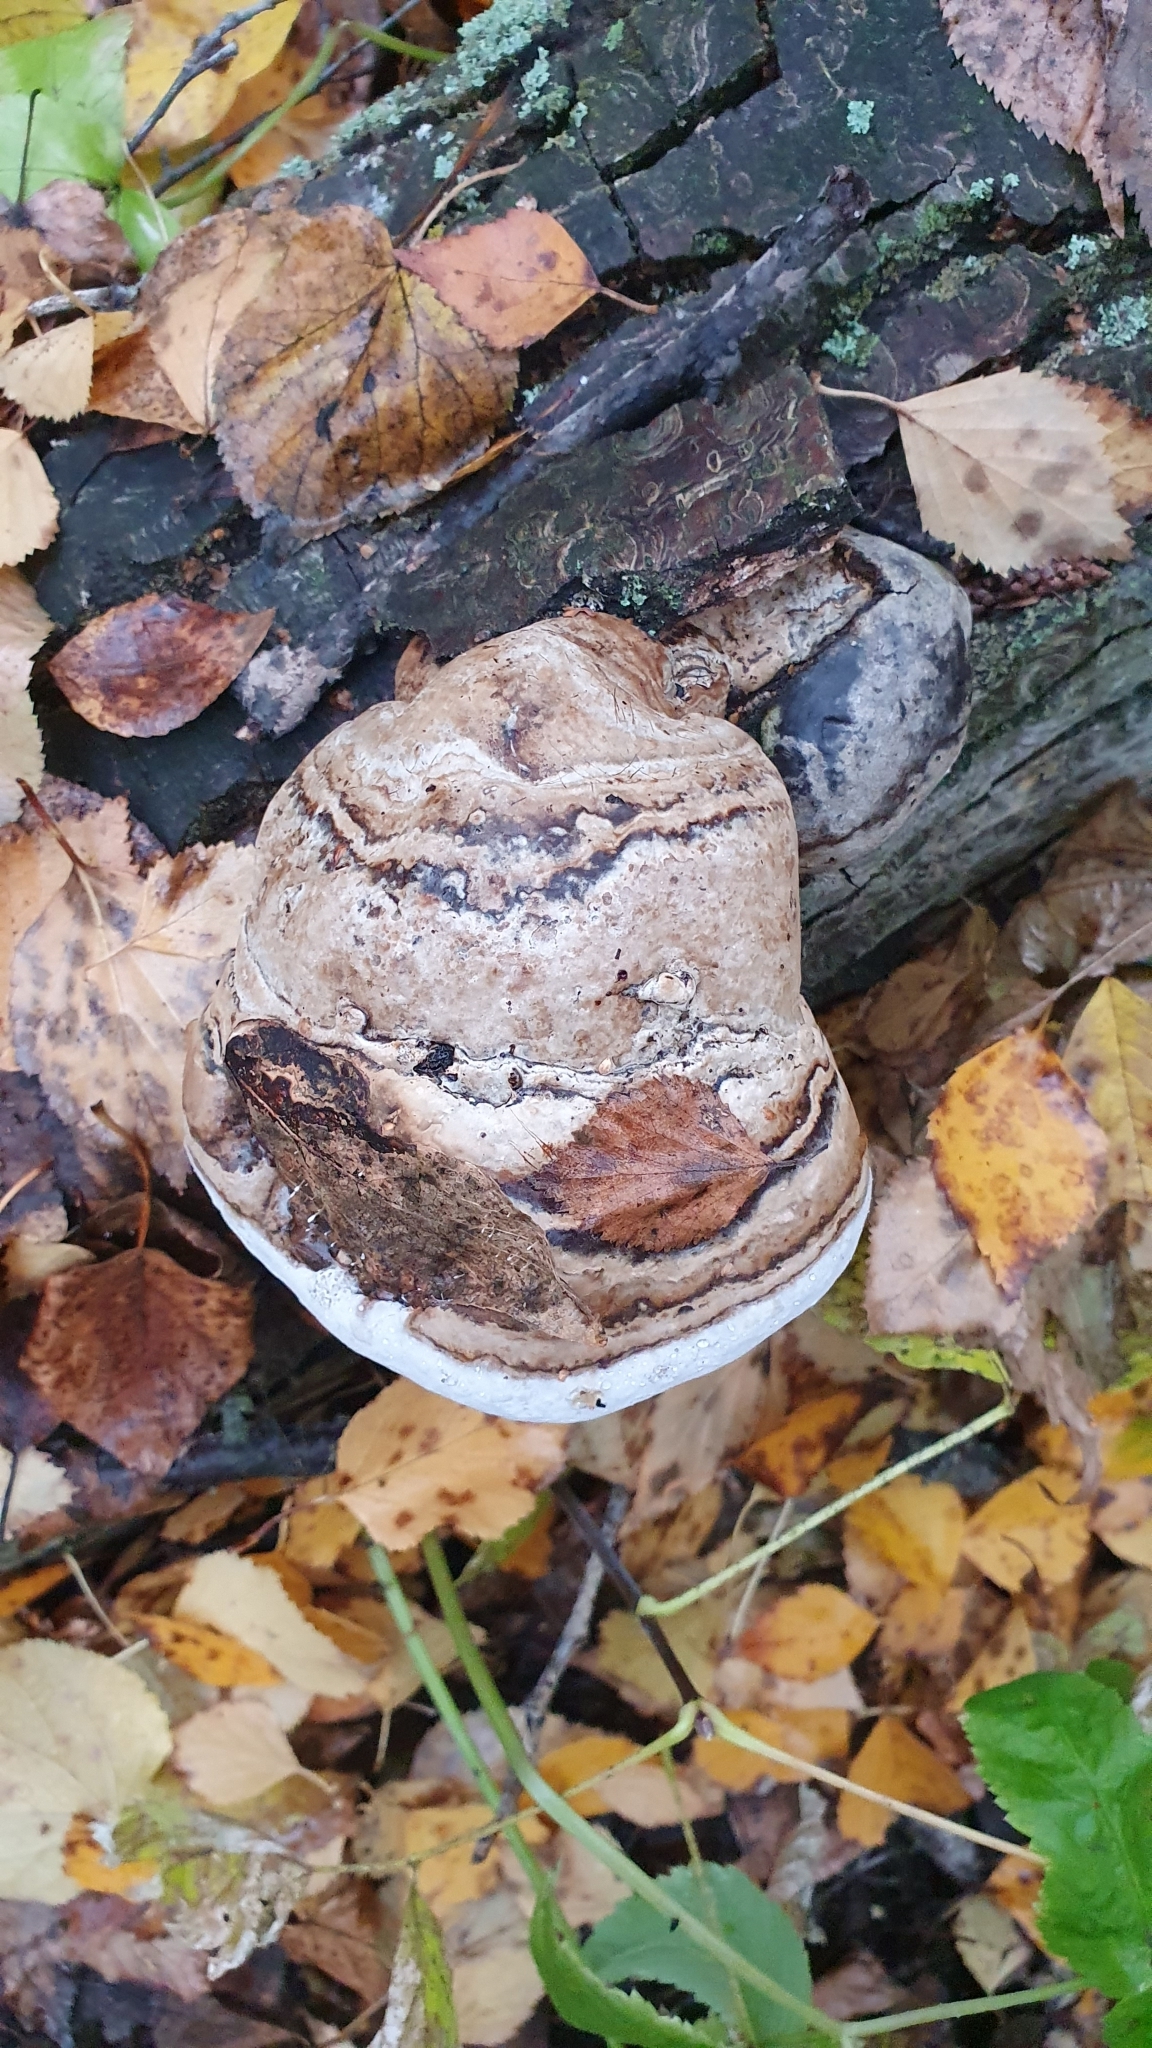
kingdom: Fungi
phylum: Basidiomycota
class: Agaricomycetes
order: Polyporales
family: Polyporaceae
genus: Fomes
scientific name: Fomes fomentarius
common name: Hoof fungus
